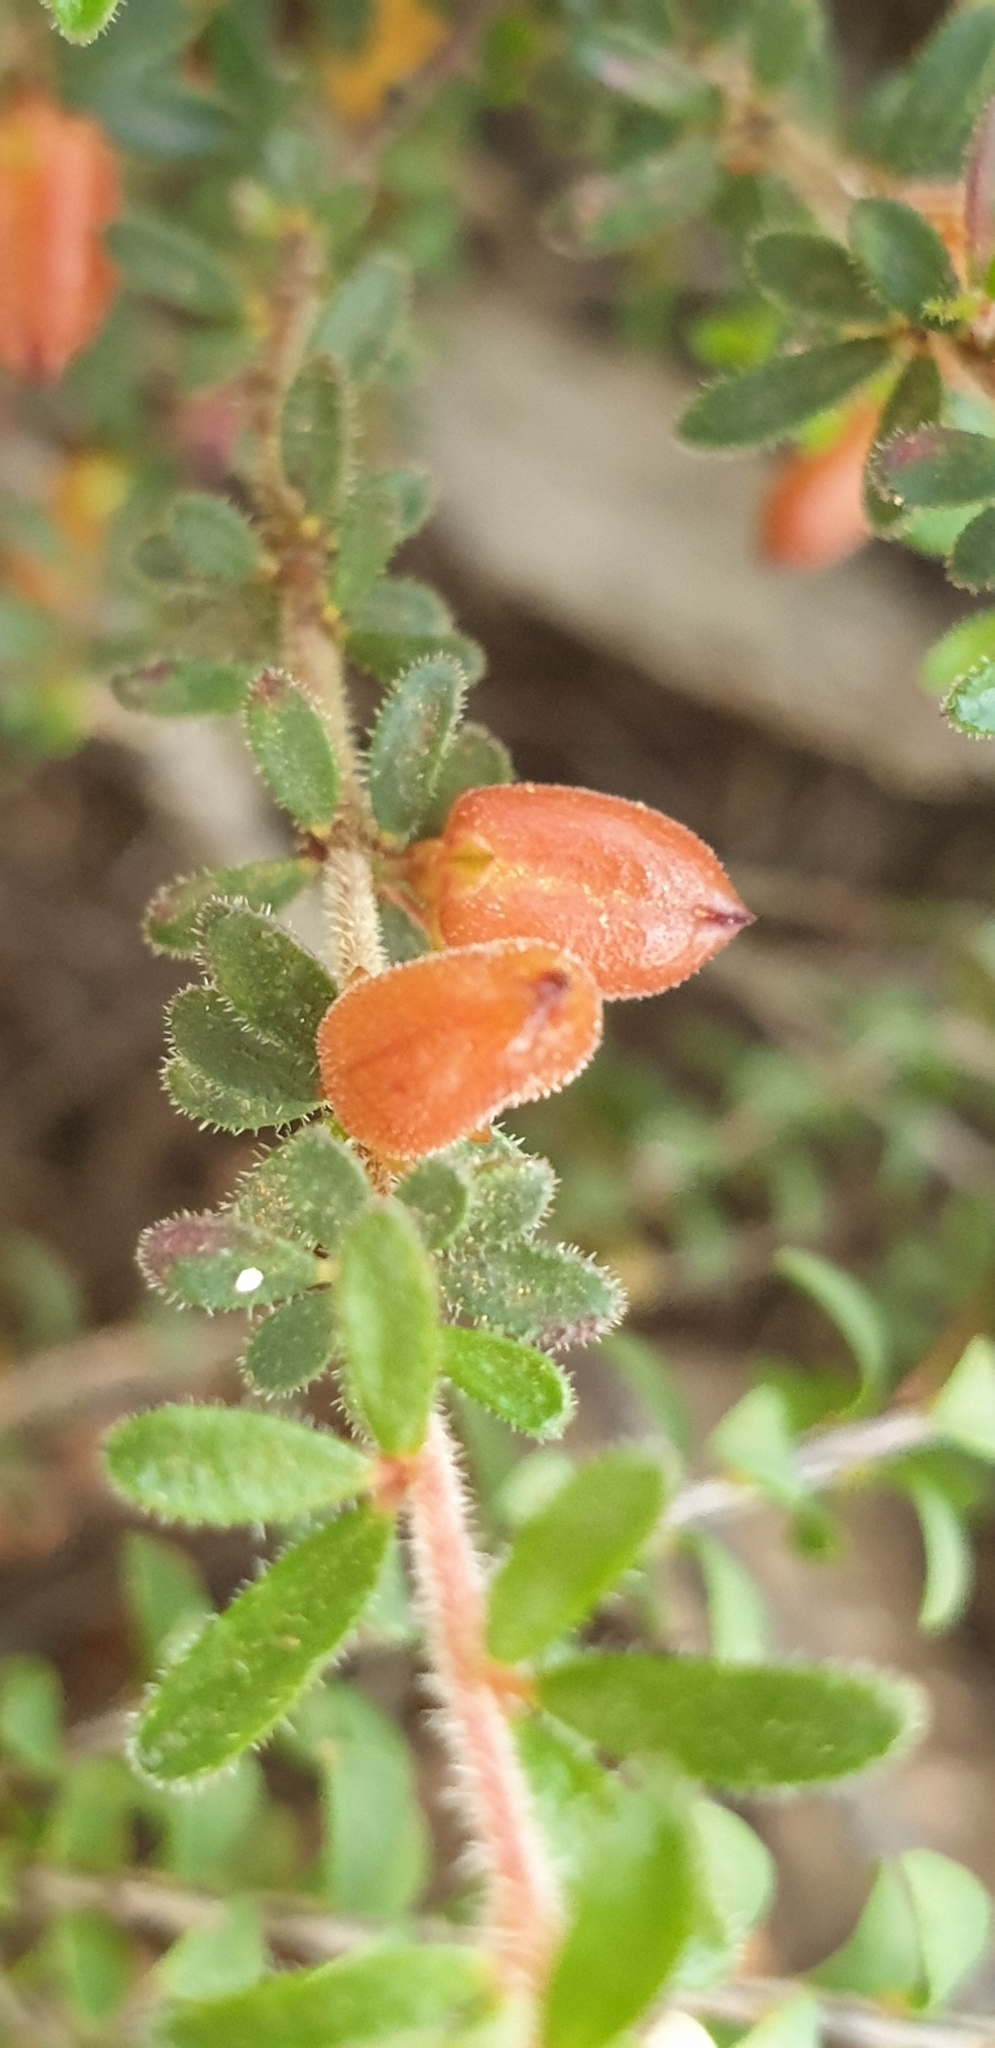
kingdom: Plantae
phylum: Tracheophyta
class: Magnoliopsida
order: Malpighiales
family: Picrodendraceae
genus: Micrantheum
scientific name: Micrantheum demissum
